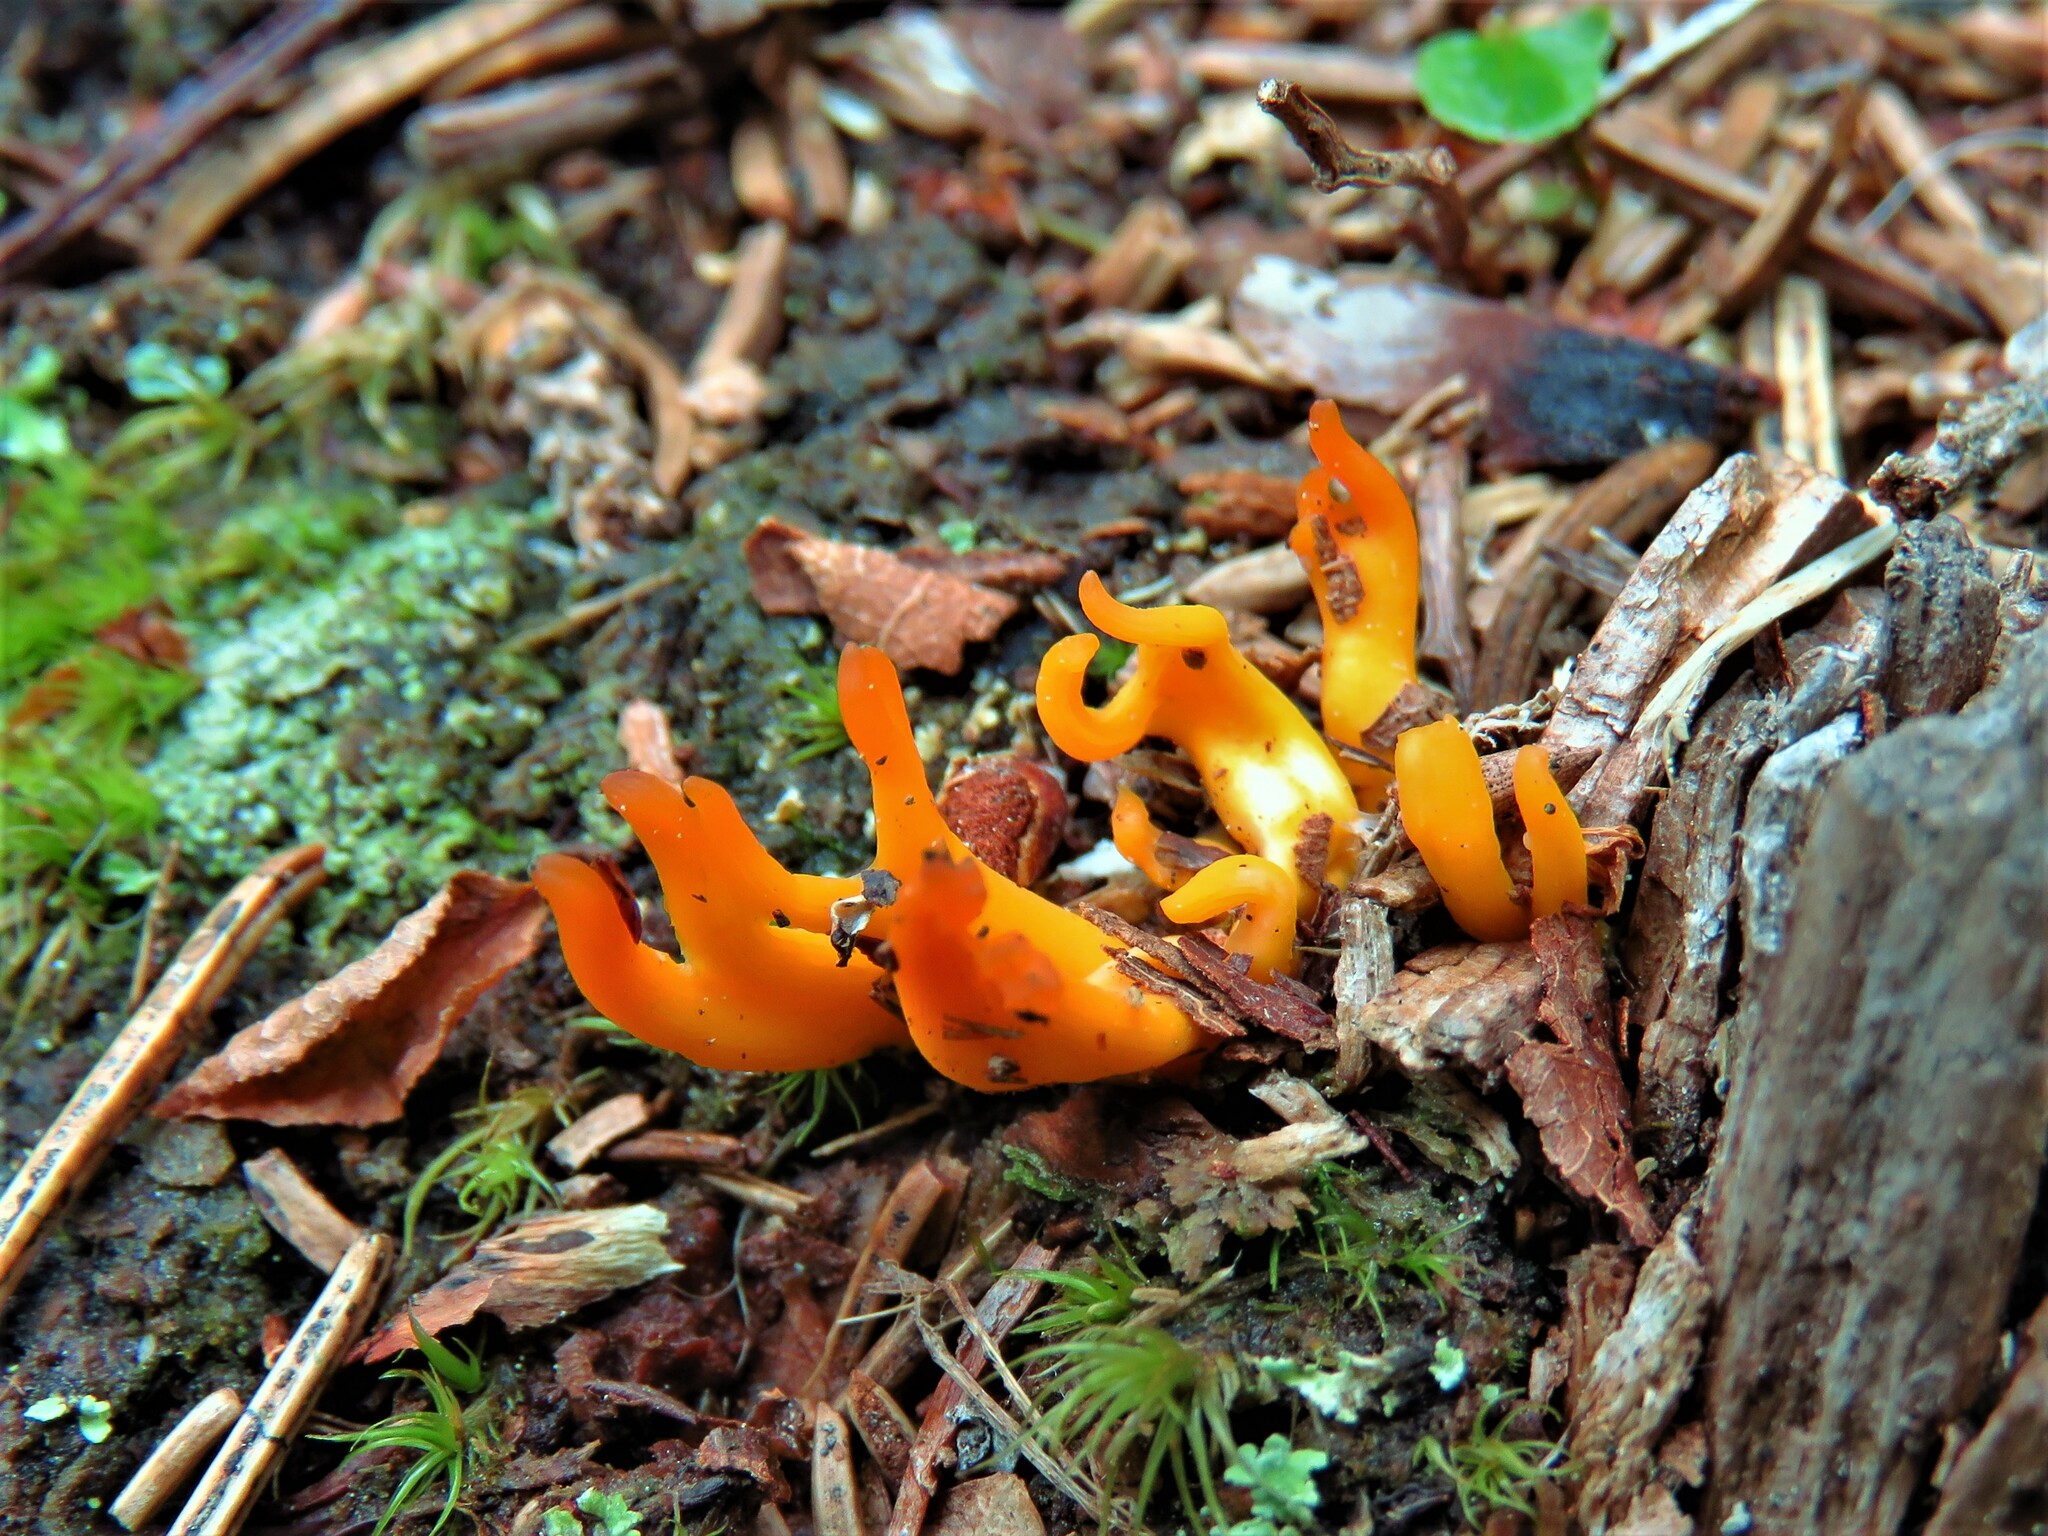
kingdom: Fungi
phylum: Basidiomycota
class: Dacrymycetes
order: Dacrymycetales
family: Dacrymycetaceae
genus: Calocera
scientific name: Calocera viscosa
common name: Yellow stagshorn
